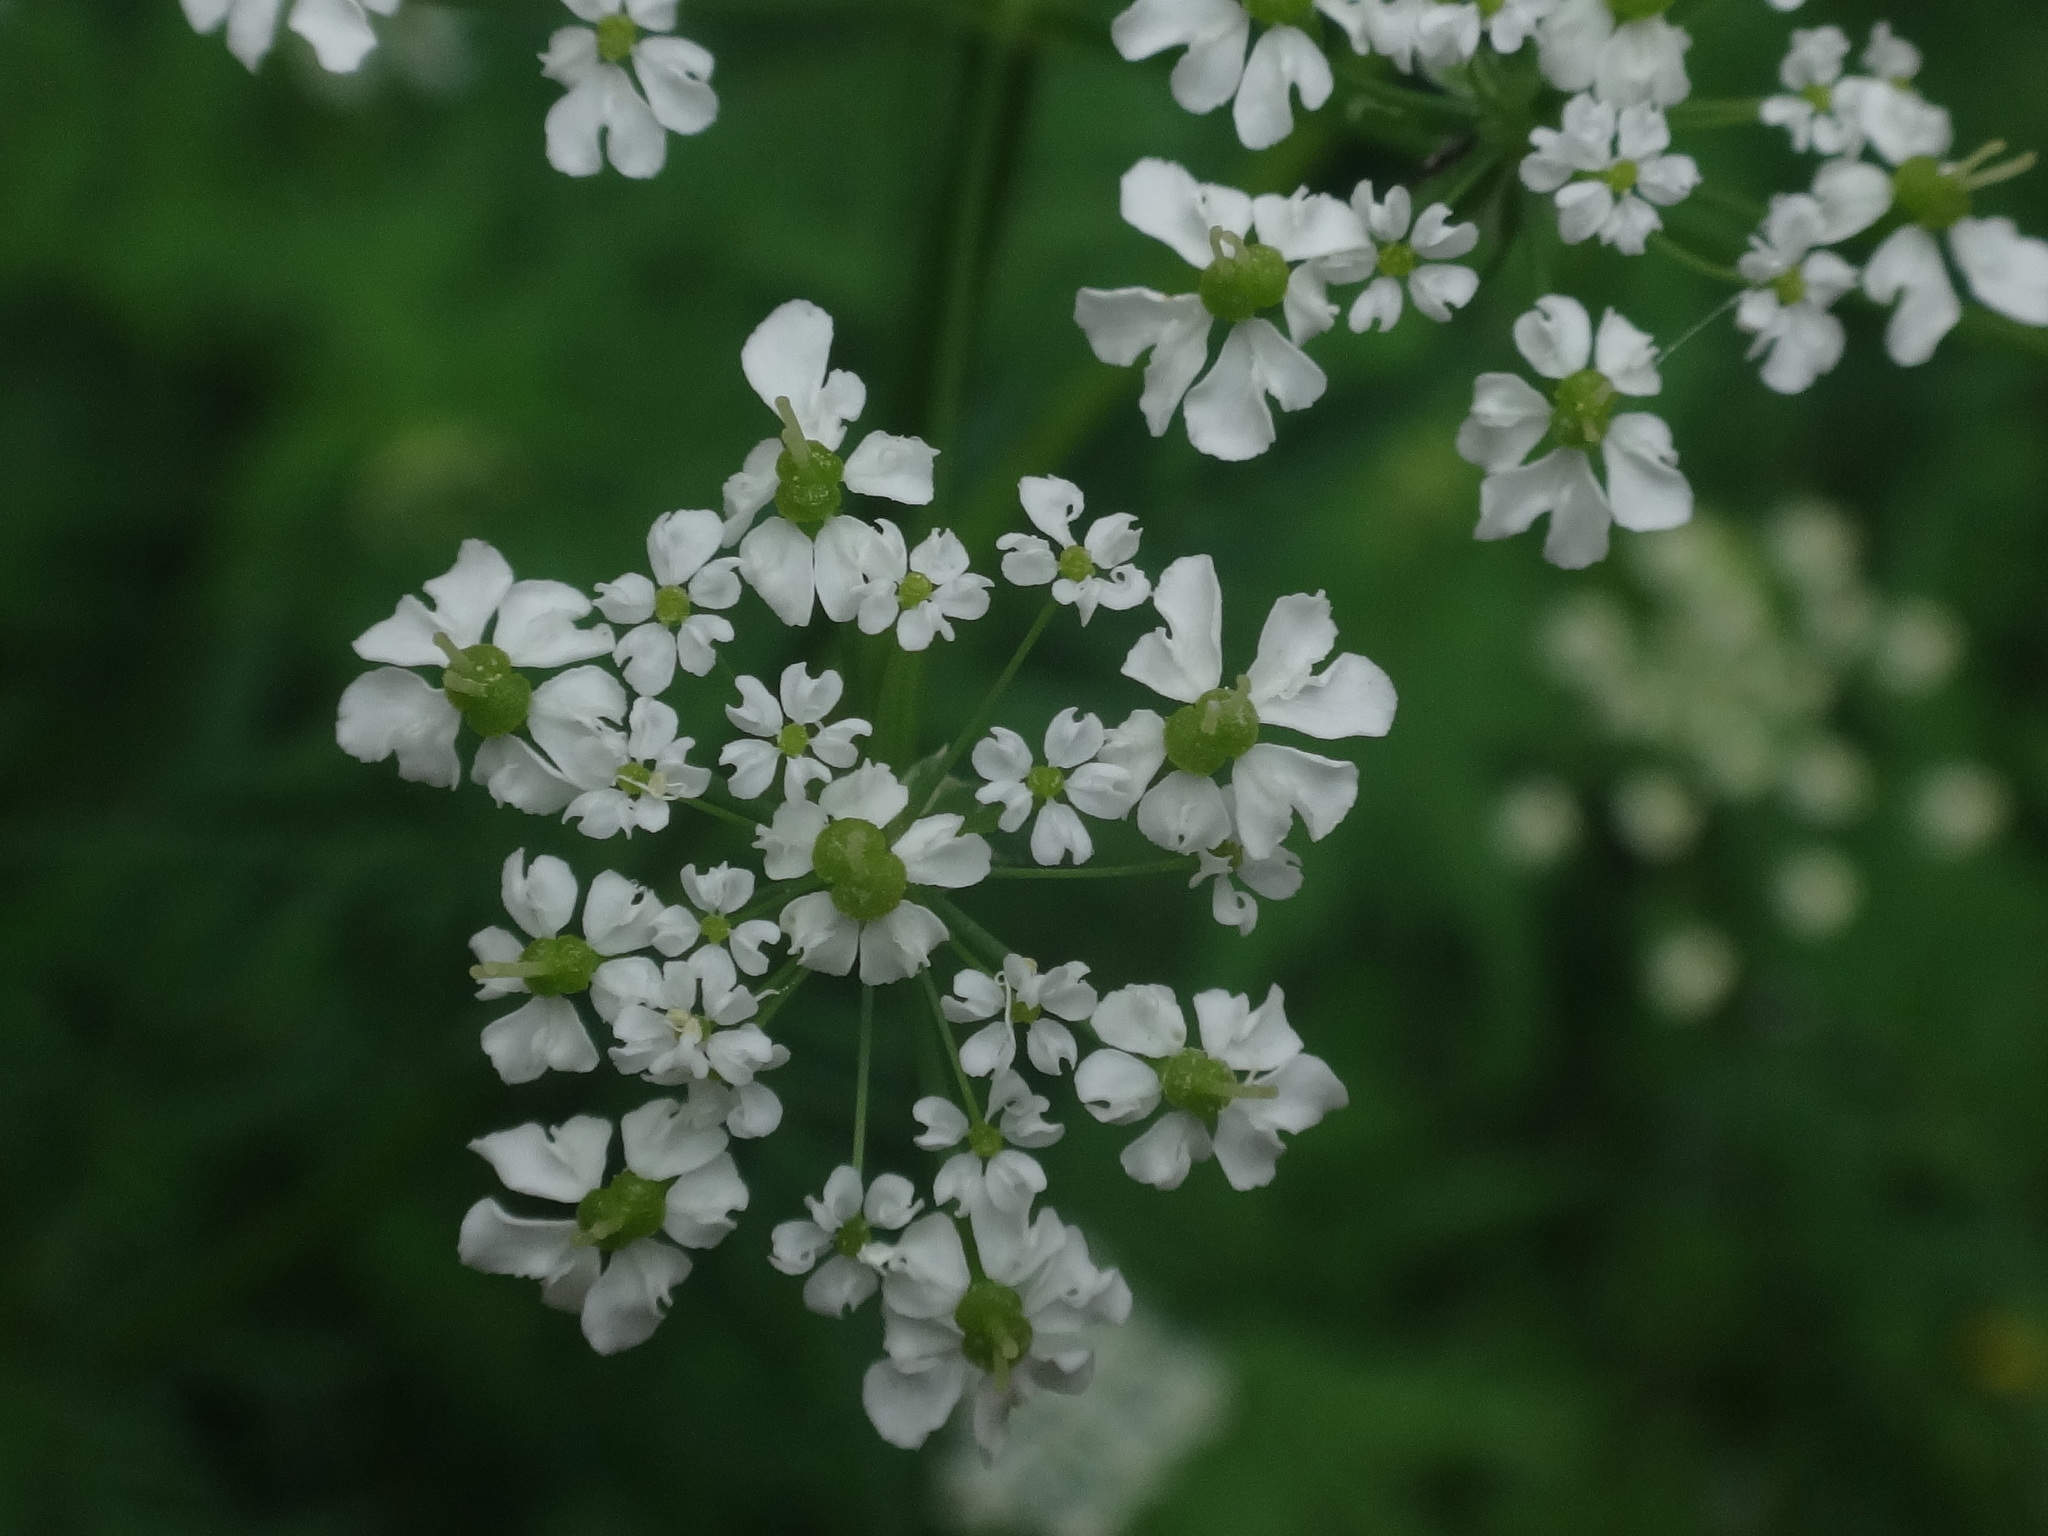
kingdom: Plantae
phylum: Tracheophyta
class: Magnoliopsida
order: Apiales
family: Apiaceae
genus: Chaerophyllum
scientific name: Chaerophyllum aureum
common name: Golden chervil
